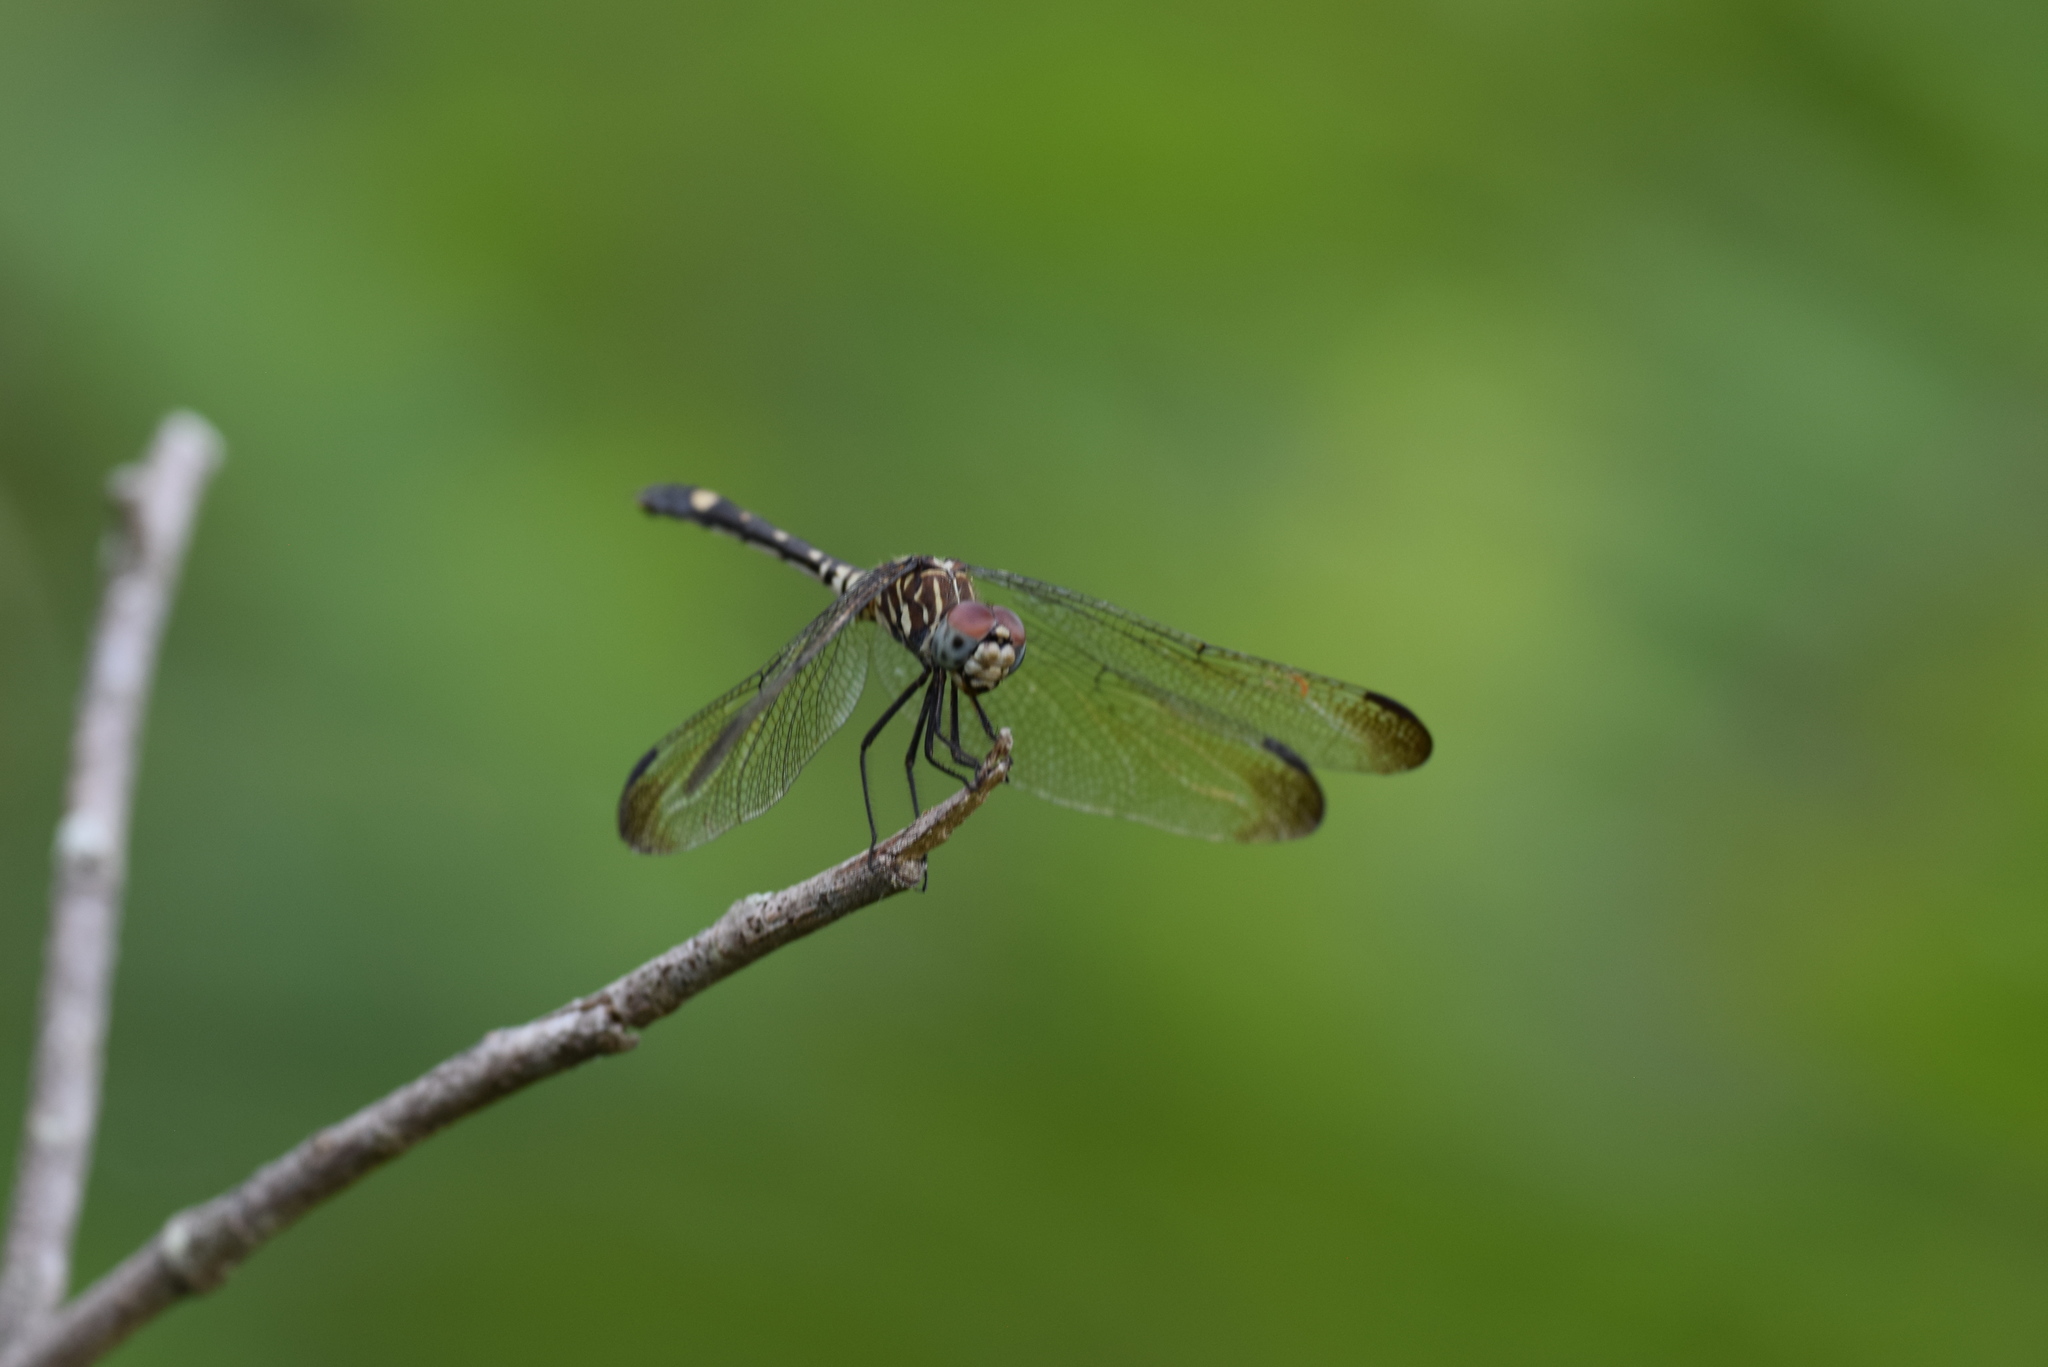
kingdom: Animalia
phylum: Arthropoda
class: Insecta
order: Odonata
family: Libellulidae
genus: Dythemis
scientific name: Dythemis velox
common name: Swift setwing
